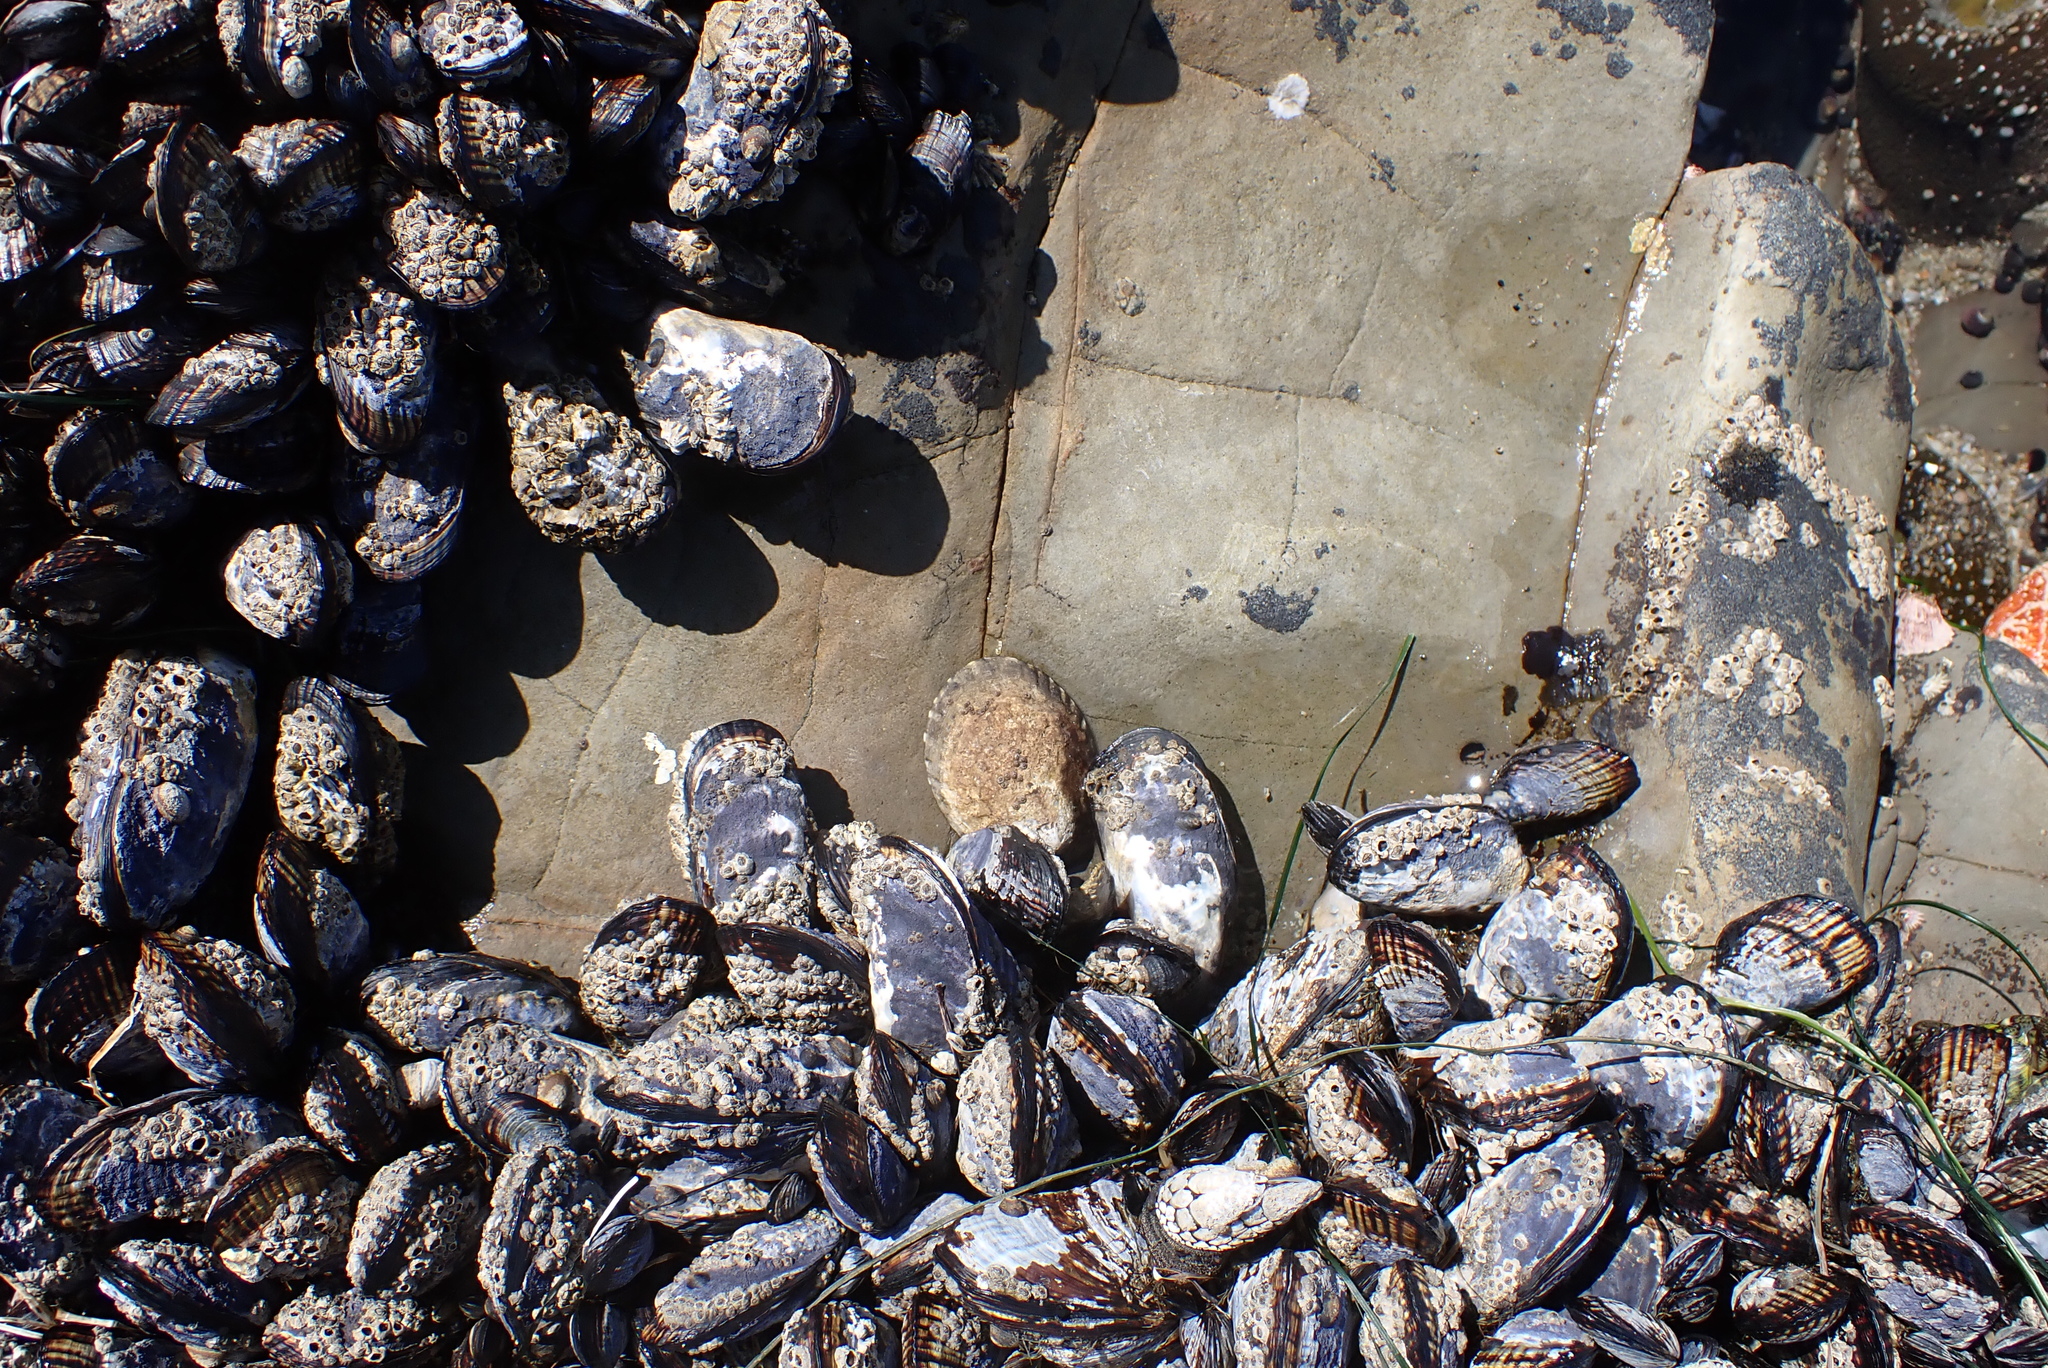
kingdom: Animalia
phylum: Mollusca
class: Bivalvia
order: Mytilida
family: Mytilidae
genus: Mytilus
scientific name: Mytilus californianus
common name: California mussel
